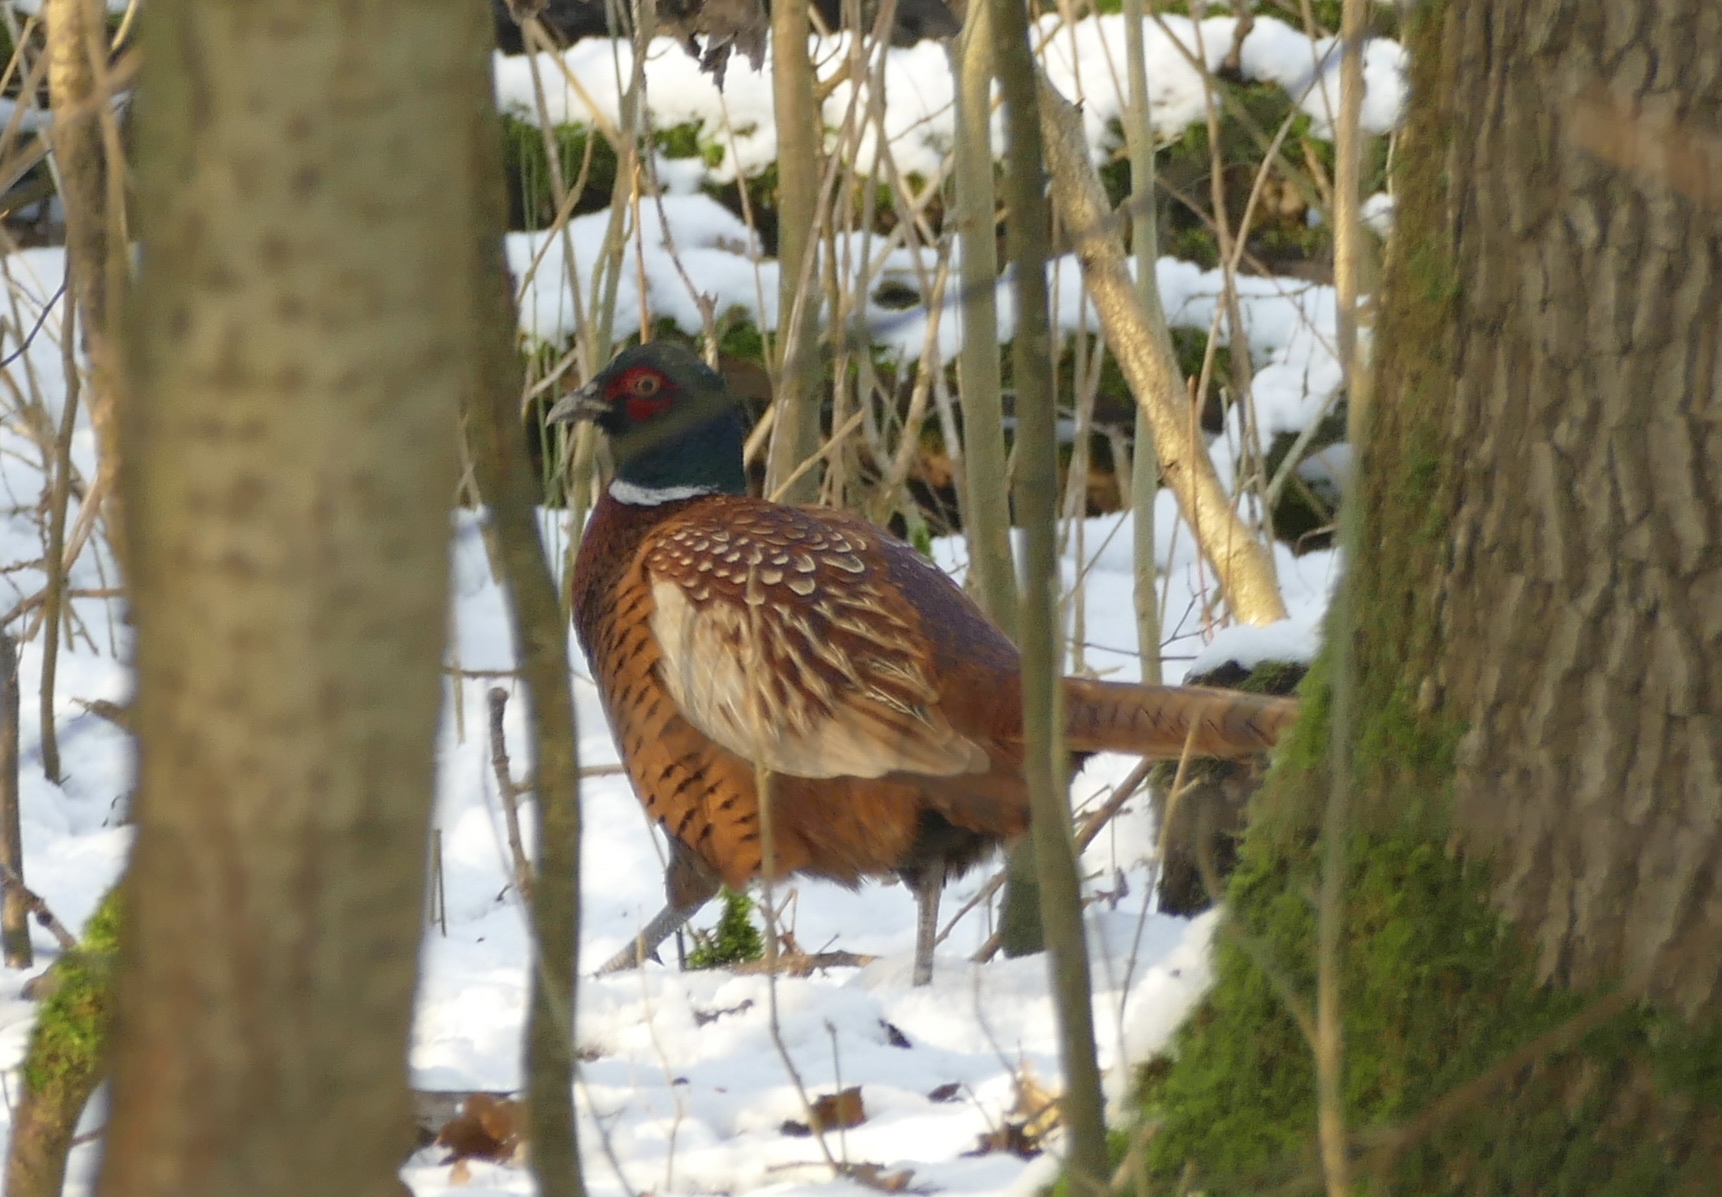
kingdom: Animalia
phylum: Chordata
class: Aves
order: Galliformes
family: Phasianidae
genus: Phasianus
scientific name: Phasianus colchicus
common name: Common pheasant
